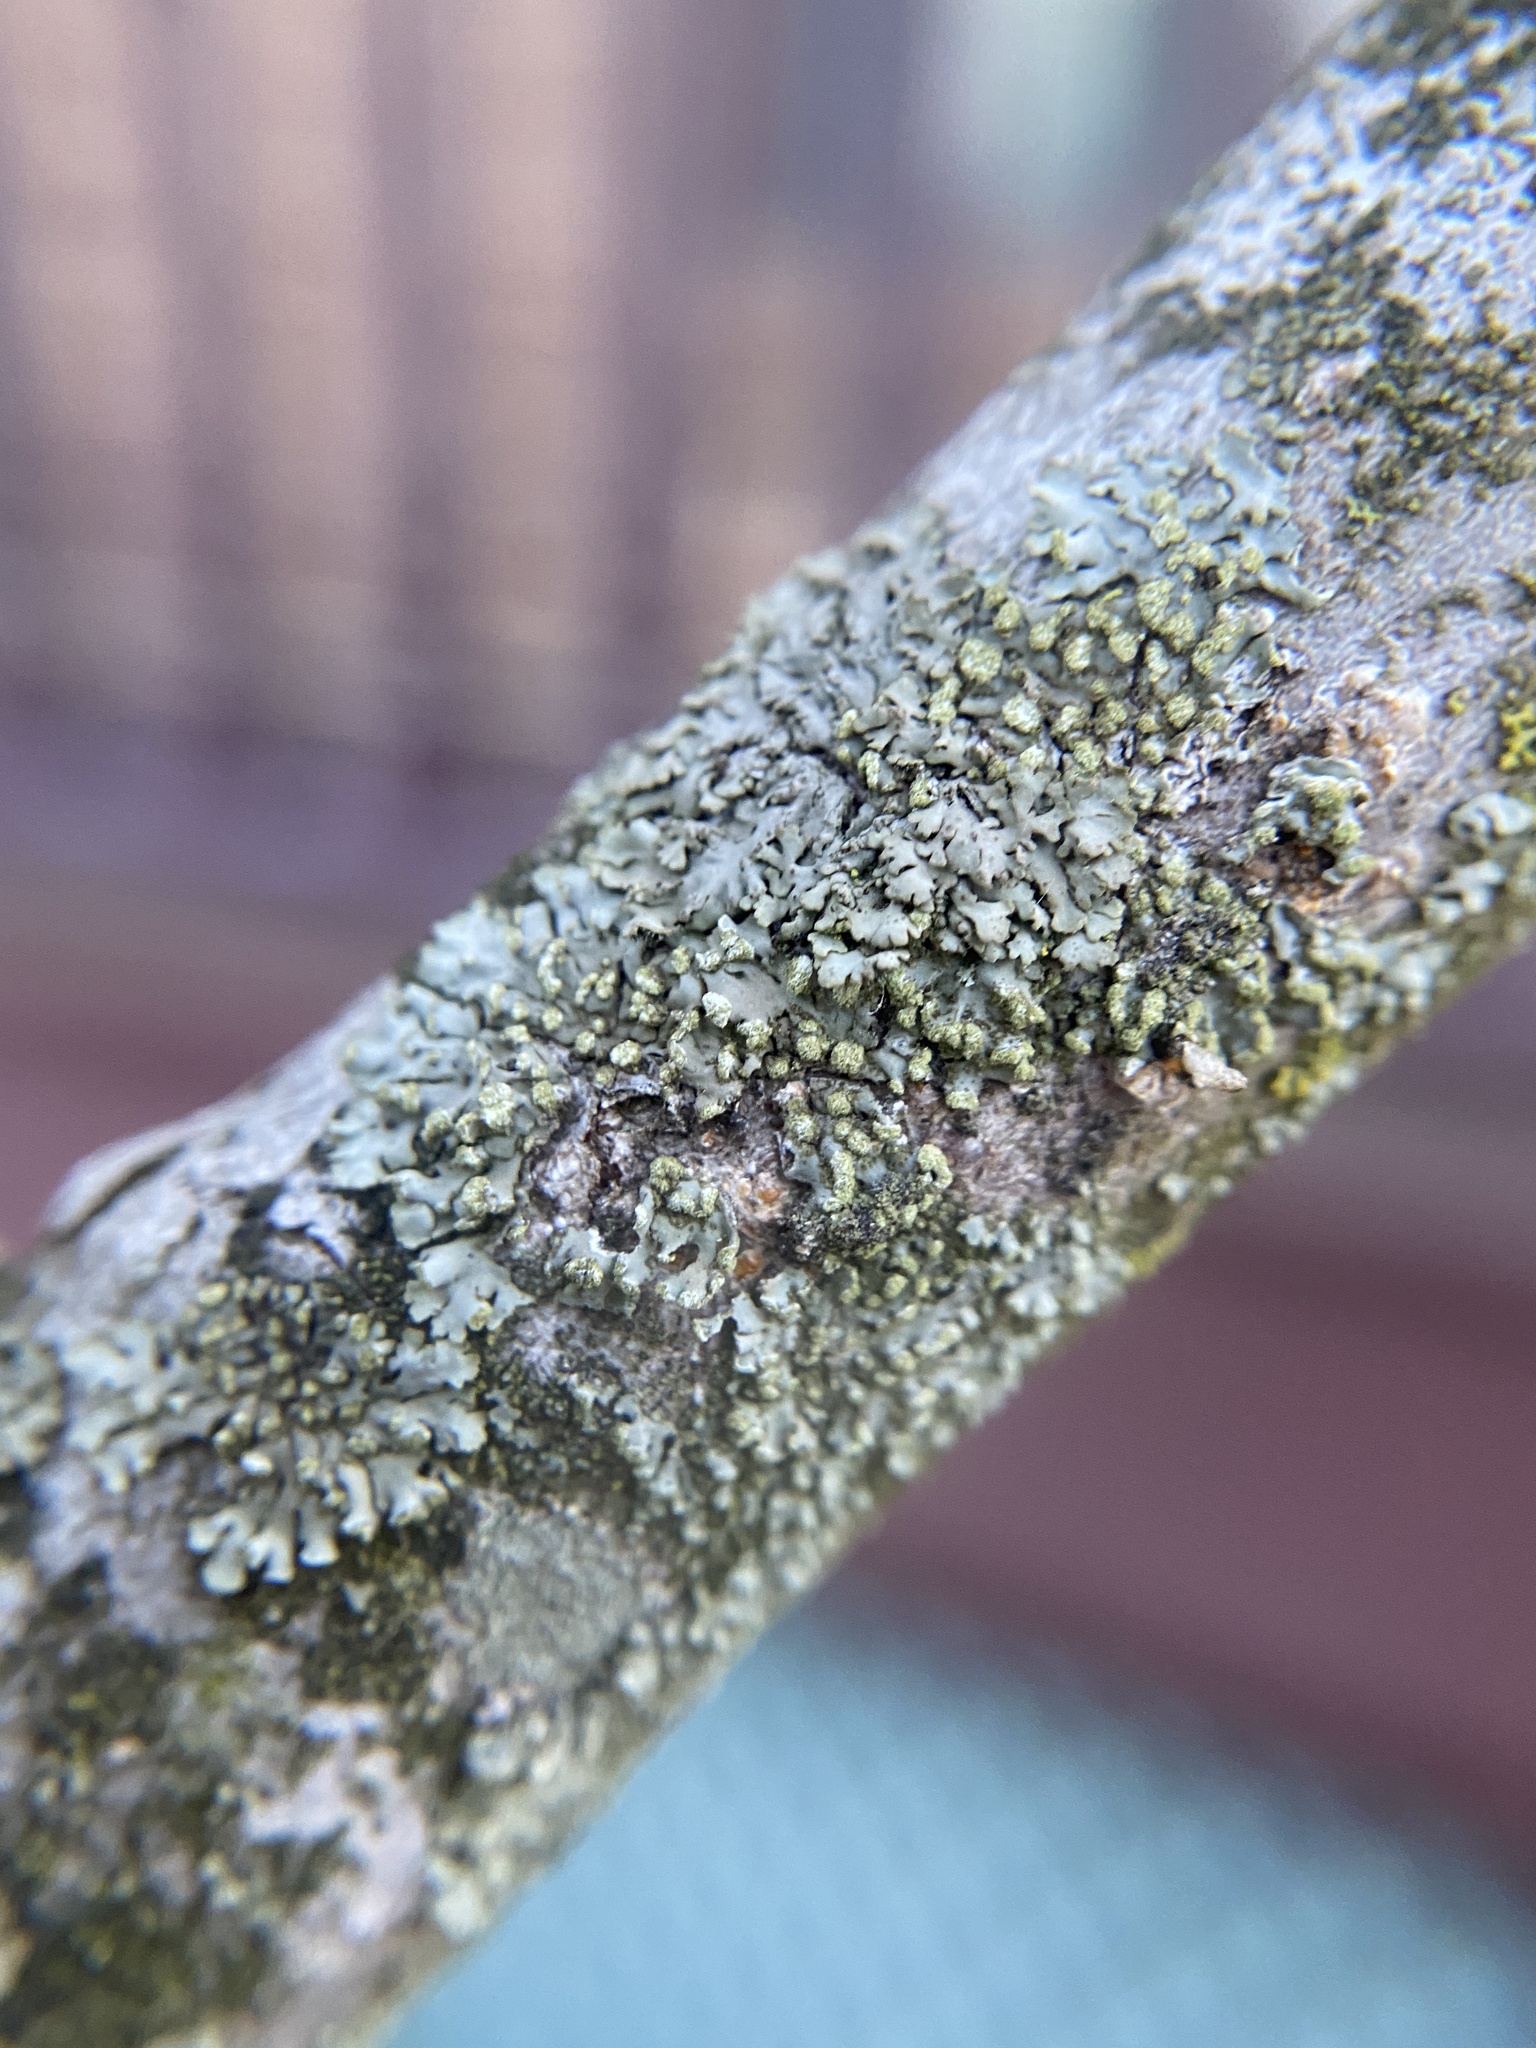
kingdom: Fungi
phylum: Ascomycota
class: Lecanoromycetes
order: Caliciales
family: Physciaceae
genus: Phaeophyscia
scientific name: Phaeophyscia pusilloides
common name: Pom-pom shadow lichen
